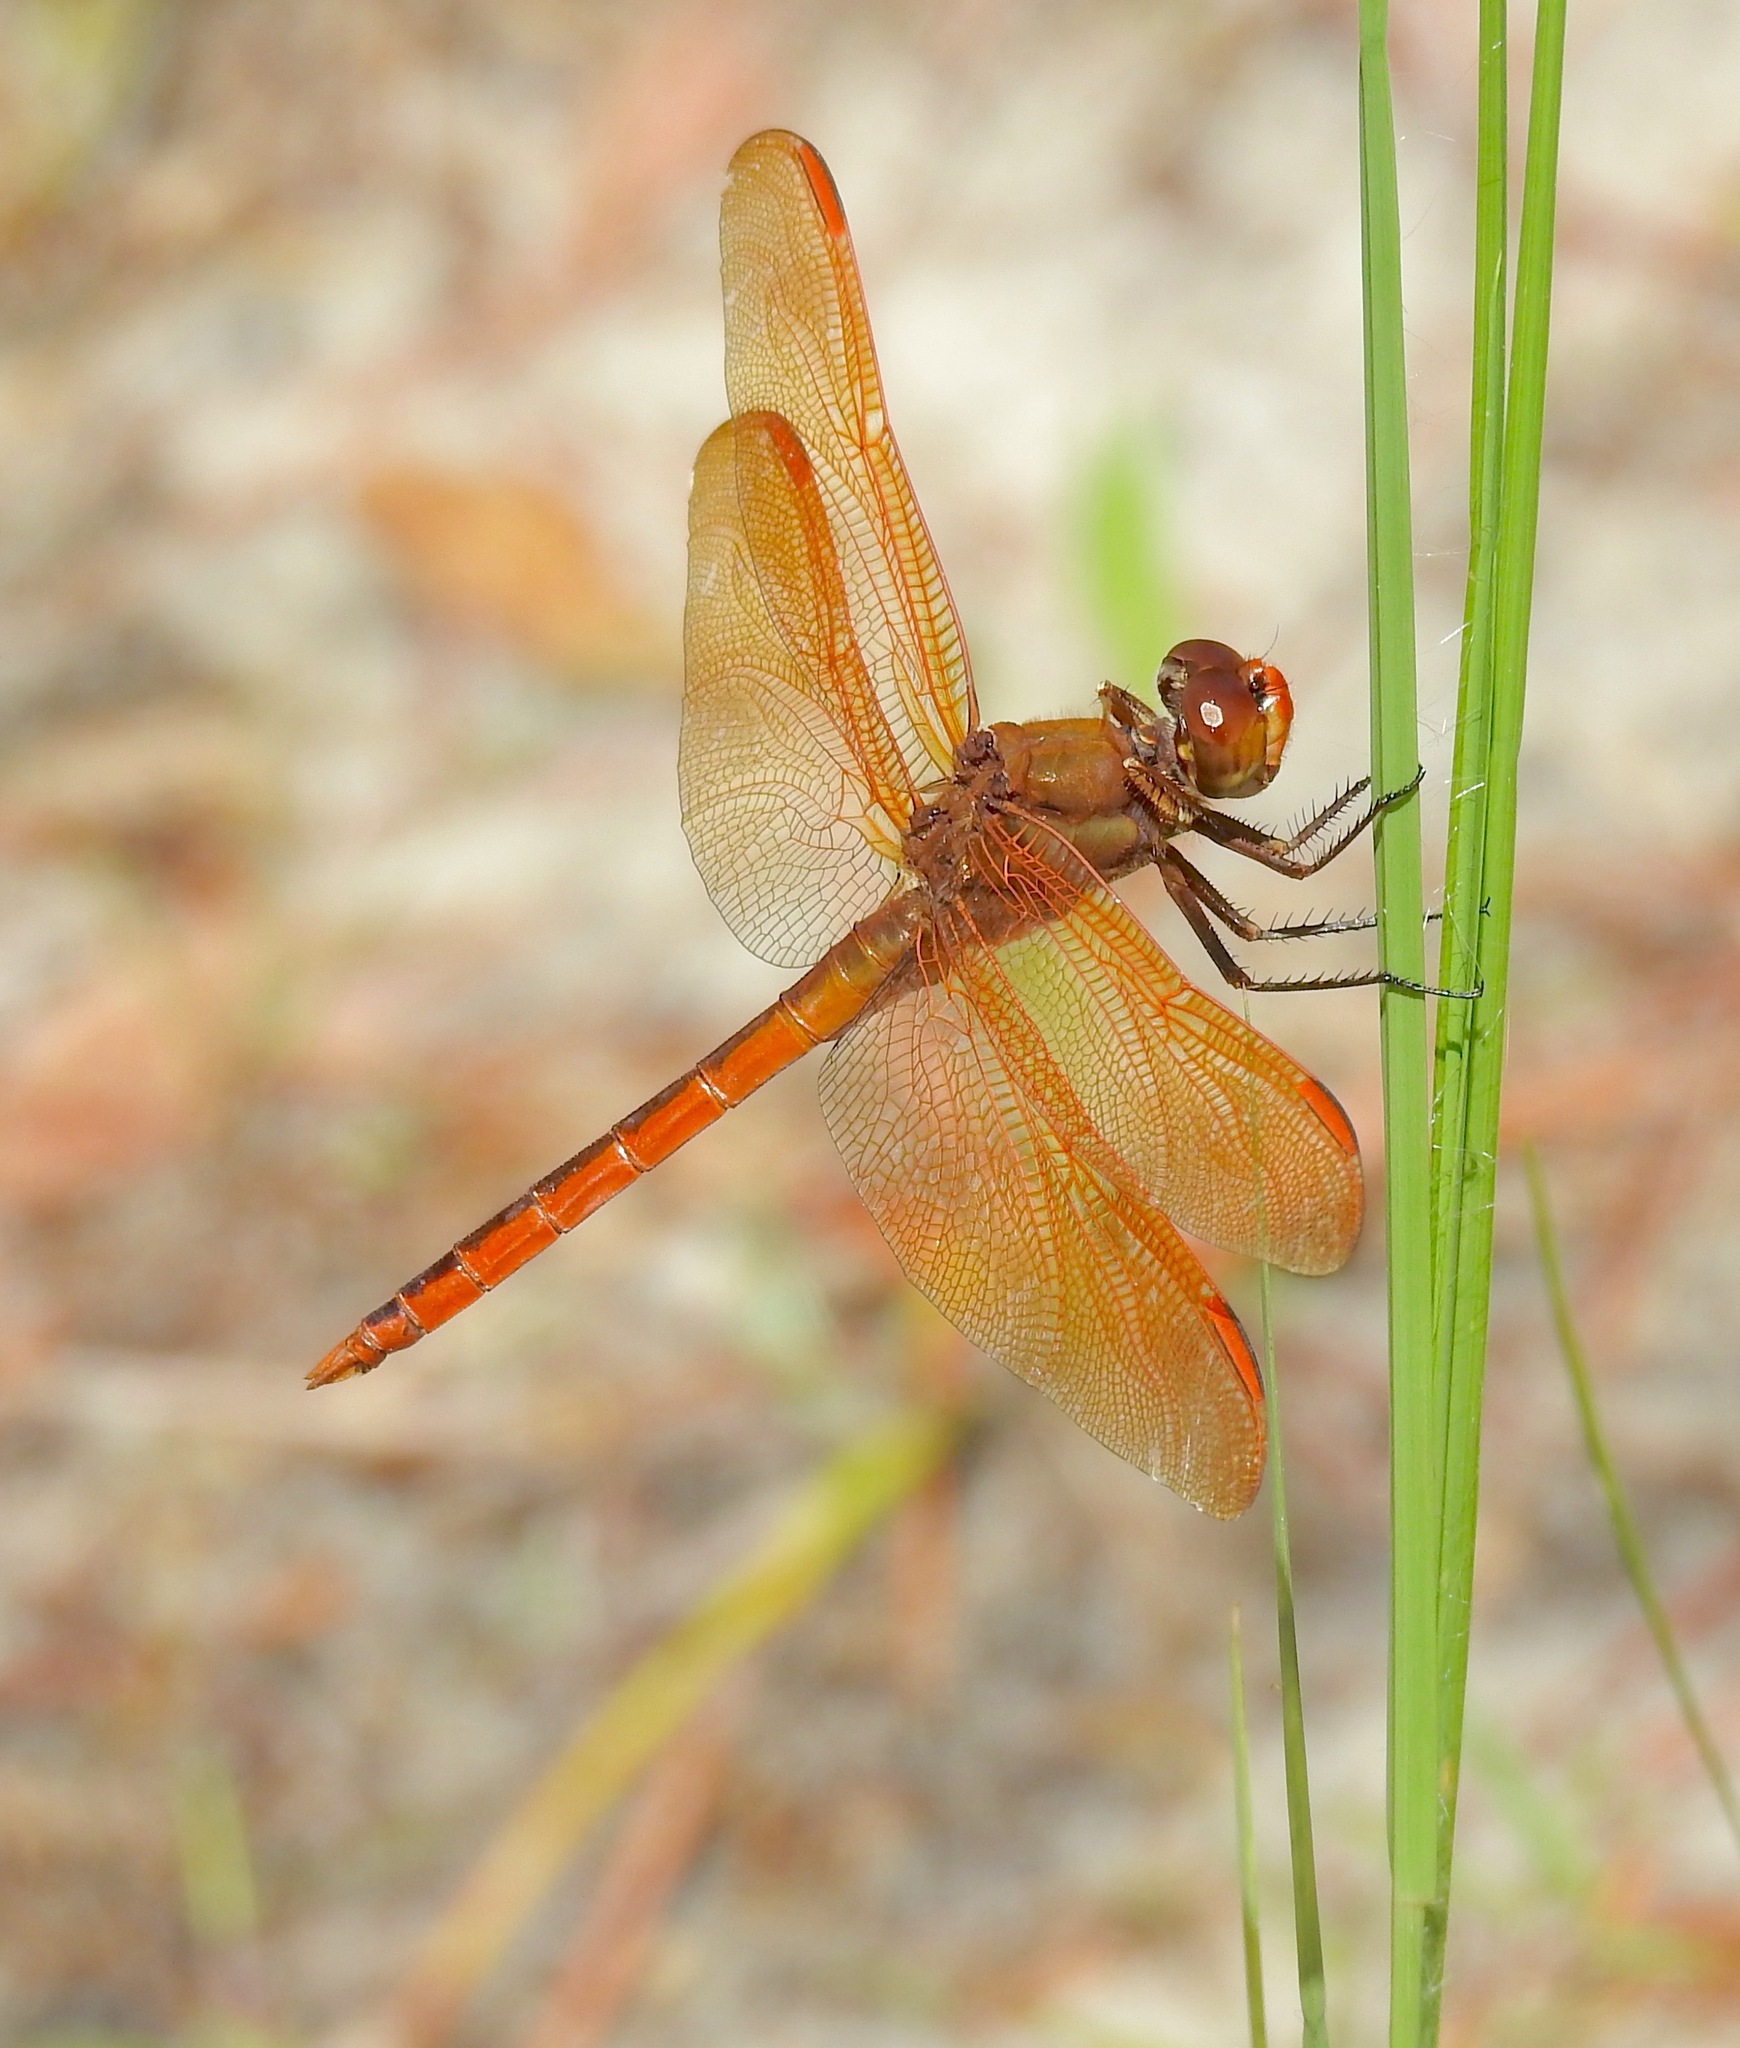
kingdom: Animalia
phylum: Arthropoda
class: Insecta
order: Odonata
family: Libellulidae
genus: Libellula
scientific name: Libellula auripennis
